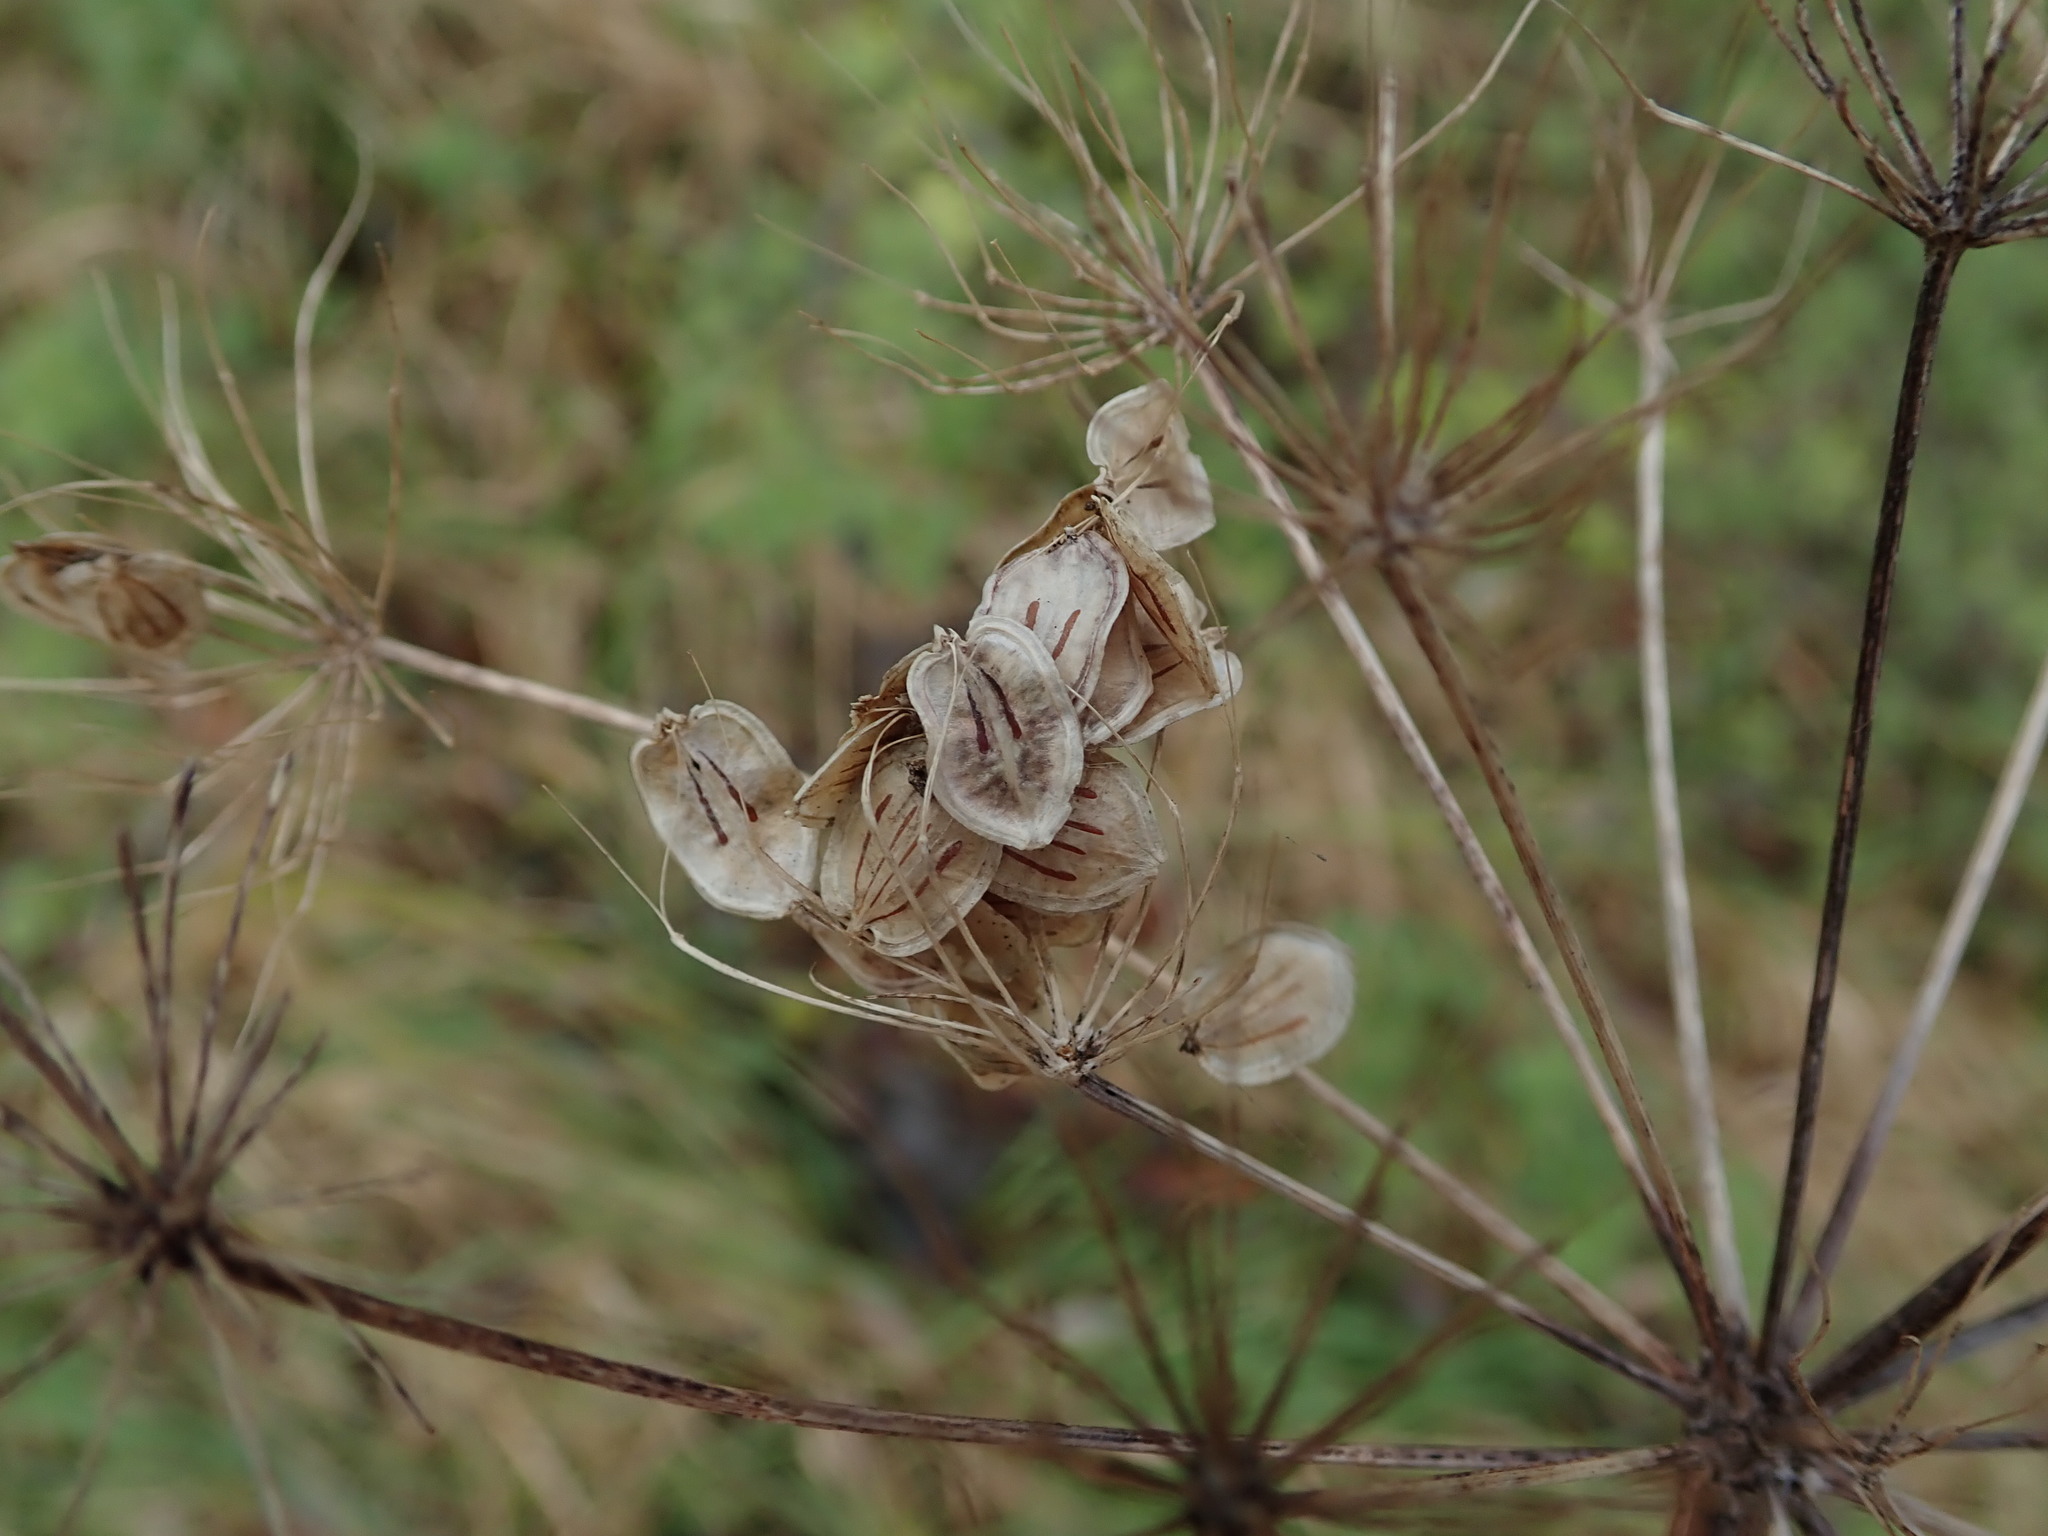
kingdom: Plantae
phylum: Tracheophyta
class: Magnoliopsida
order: Apiales
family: Apiaceae
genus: Heracleum
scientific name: Heracleum sphondylium
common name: Hogweed
